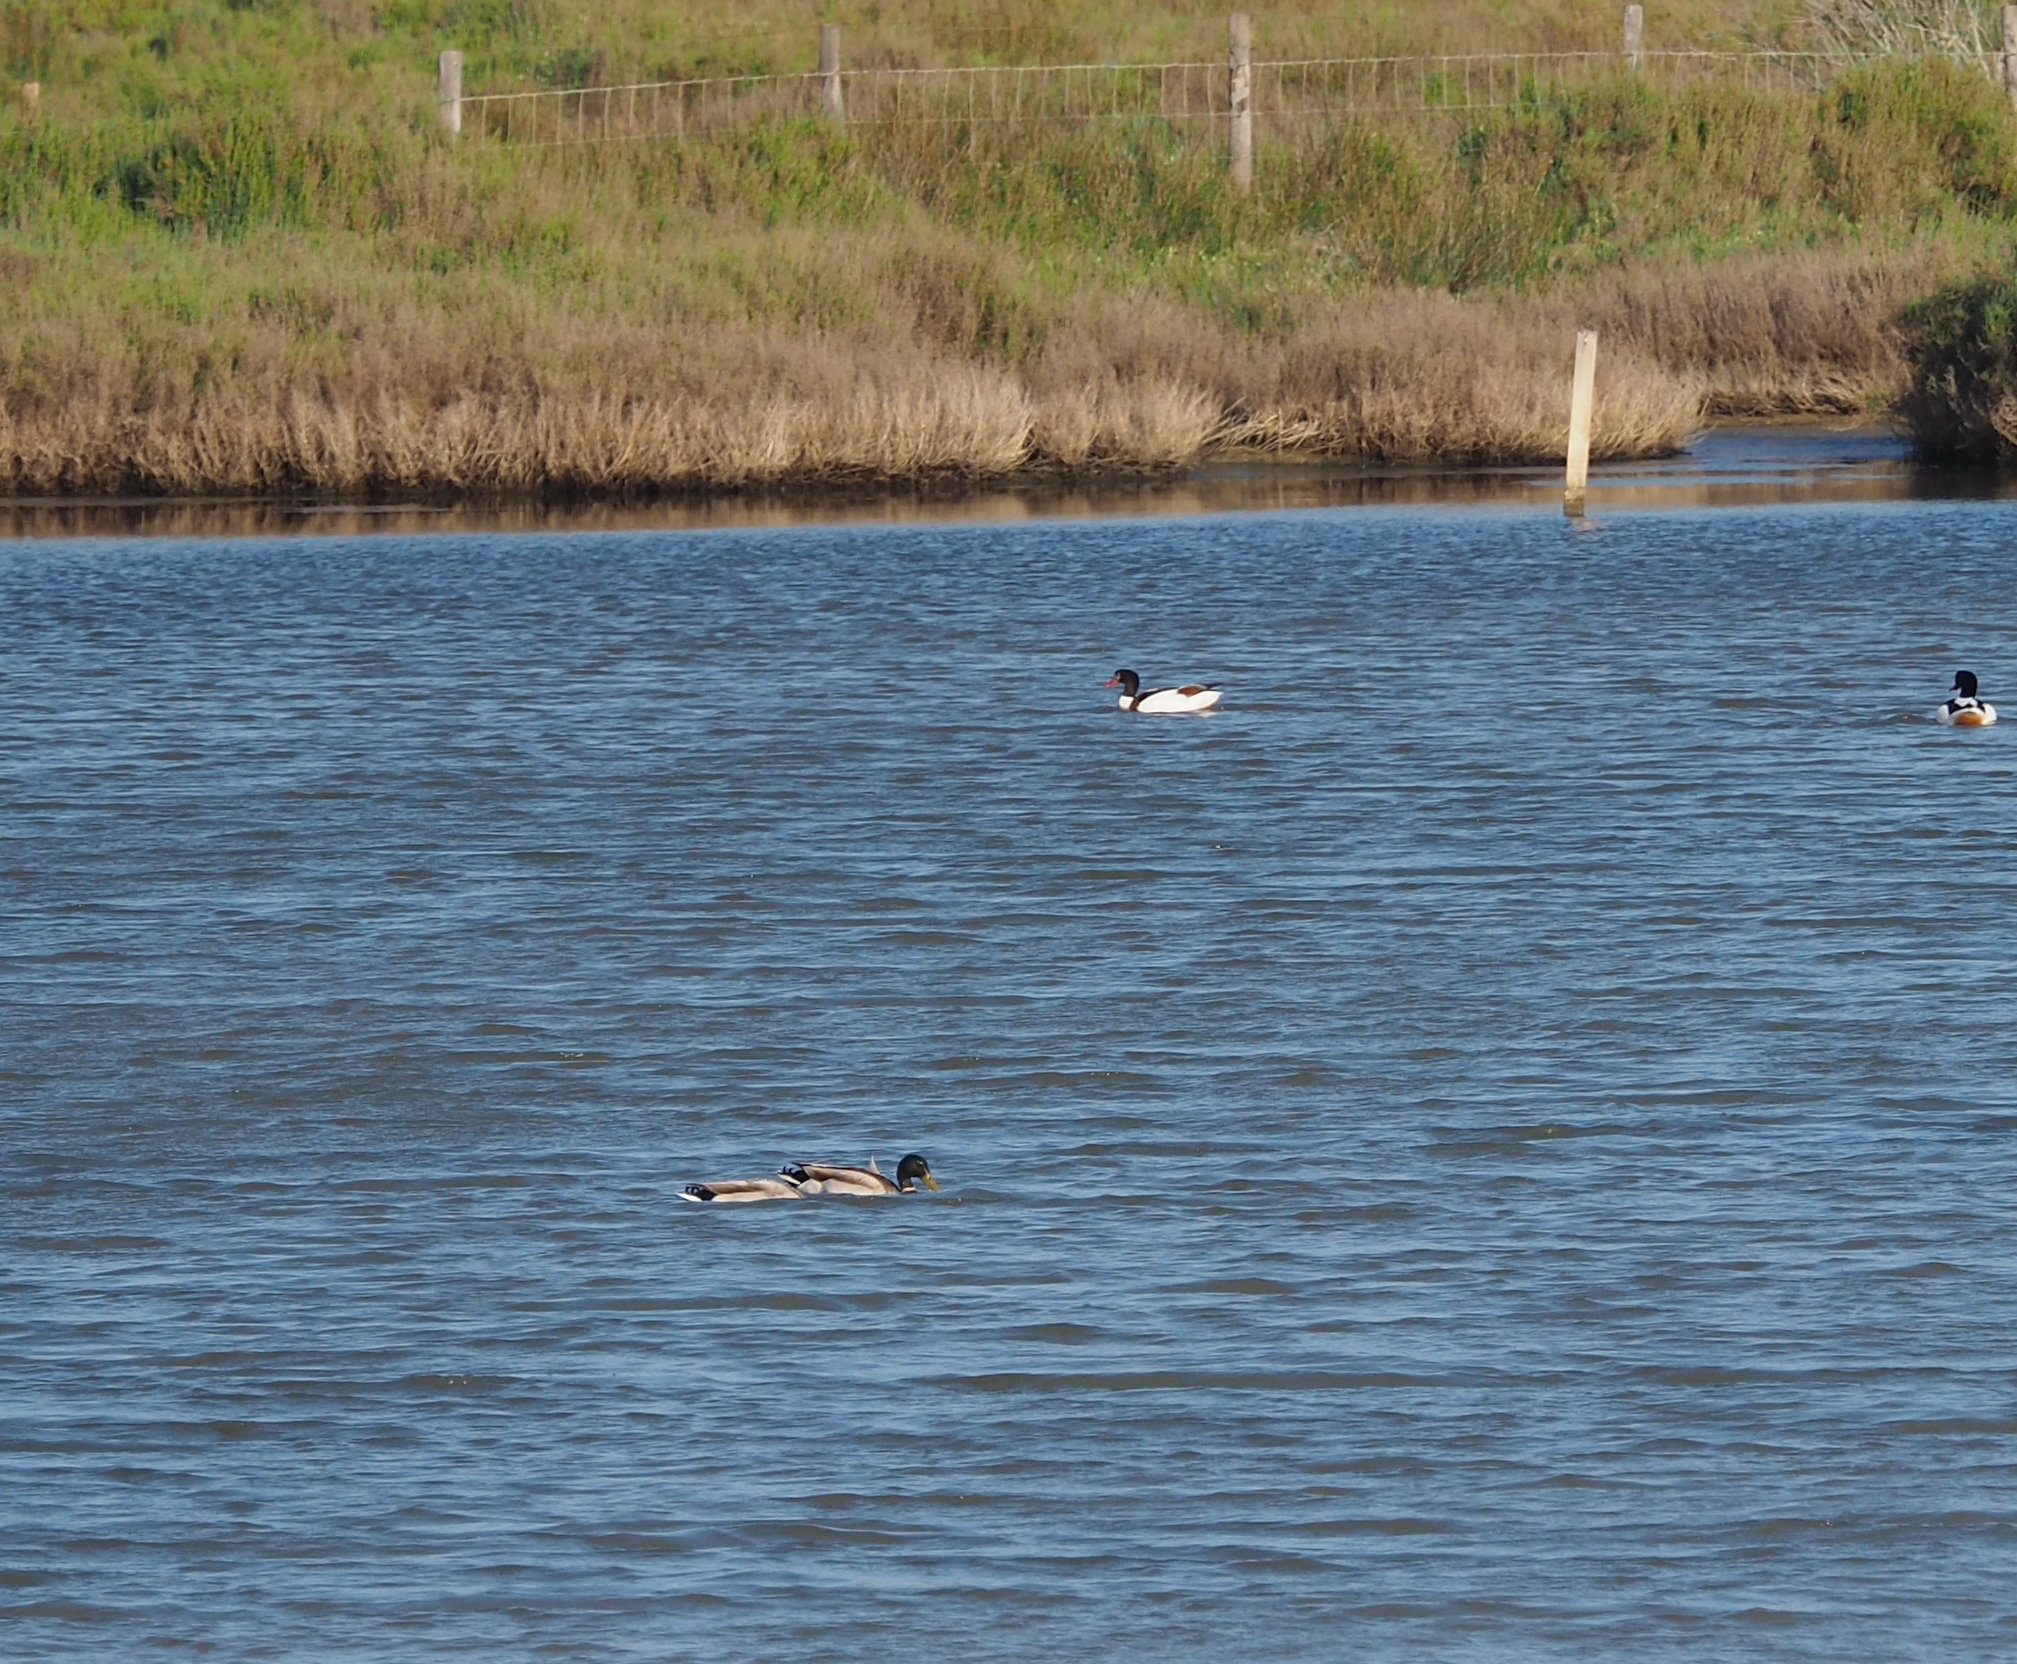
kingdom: Animalia
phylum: Chordata
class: Aves
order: Anseriformes
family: Anatidae
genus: Anas
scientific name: Anas platyrhynchos
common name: Mallard
